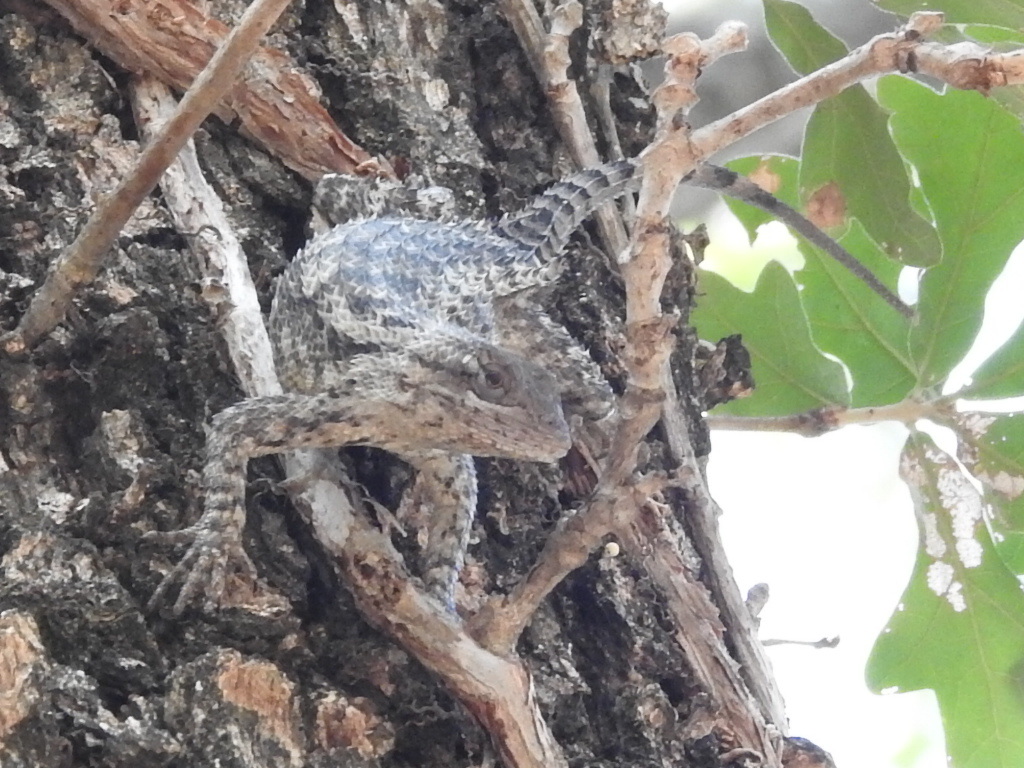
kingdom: Animalia
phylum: Chordata
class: Squamata
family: Phrynosomatidae
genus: Sceloporus
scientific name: Sceloporus olivaceus
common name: Texas spiny lizard
